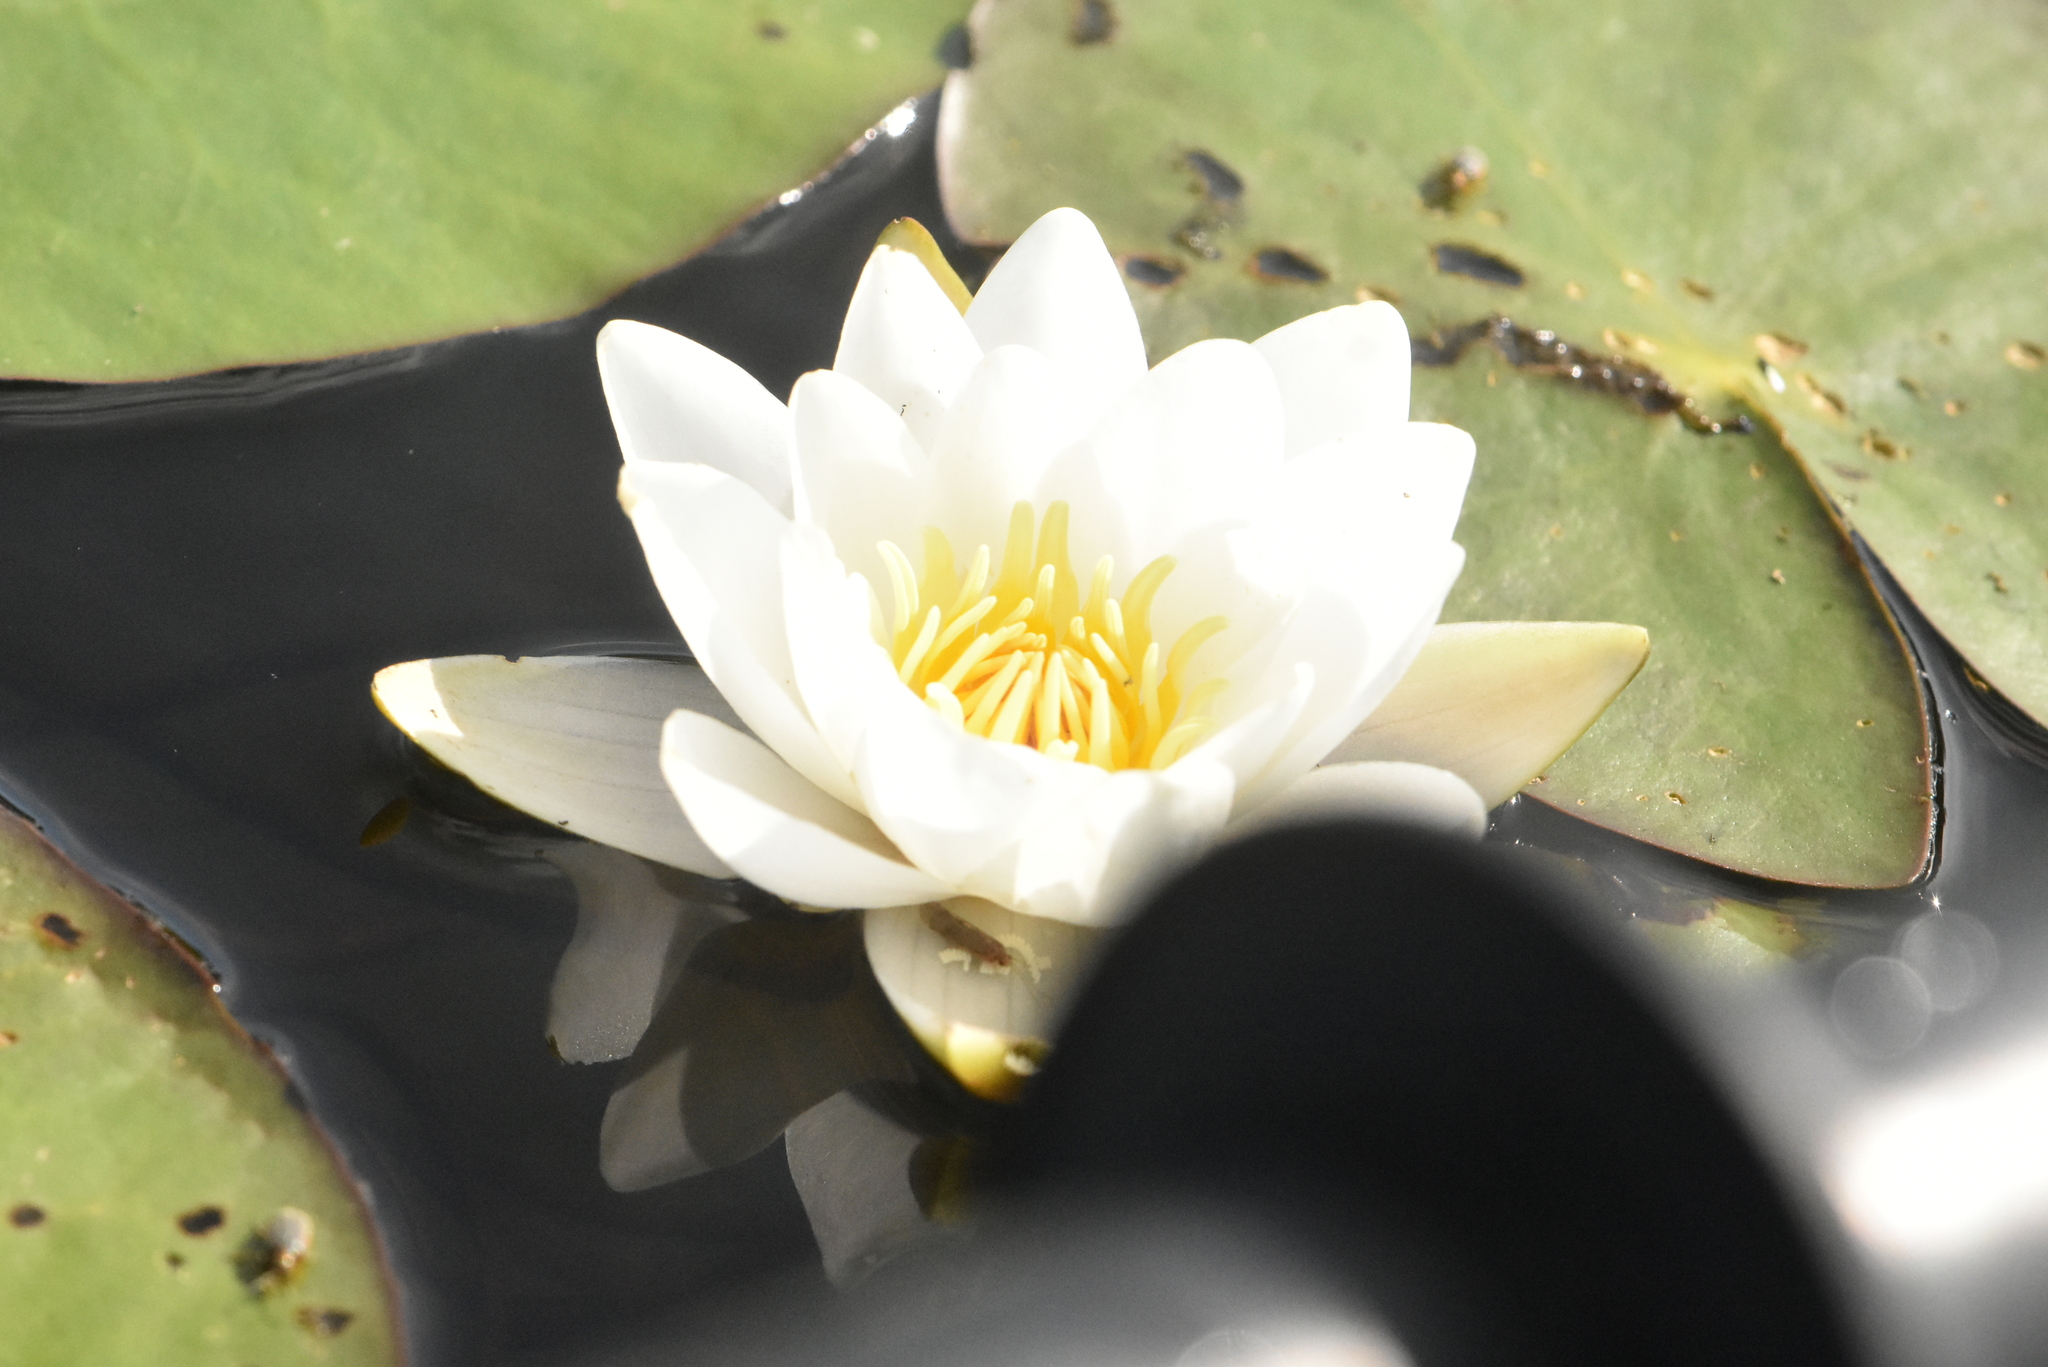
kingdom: Plantae
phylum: Tracheophyta
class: Magnoliopsida
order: Nymphaeales
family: Nymphaeaceae
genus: Nymphaea
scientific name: Nymphaea candida
